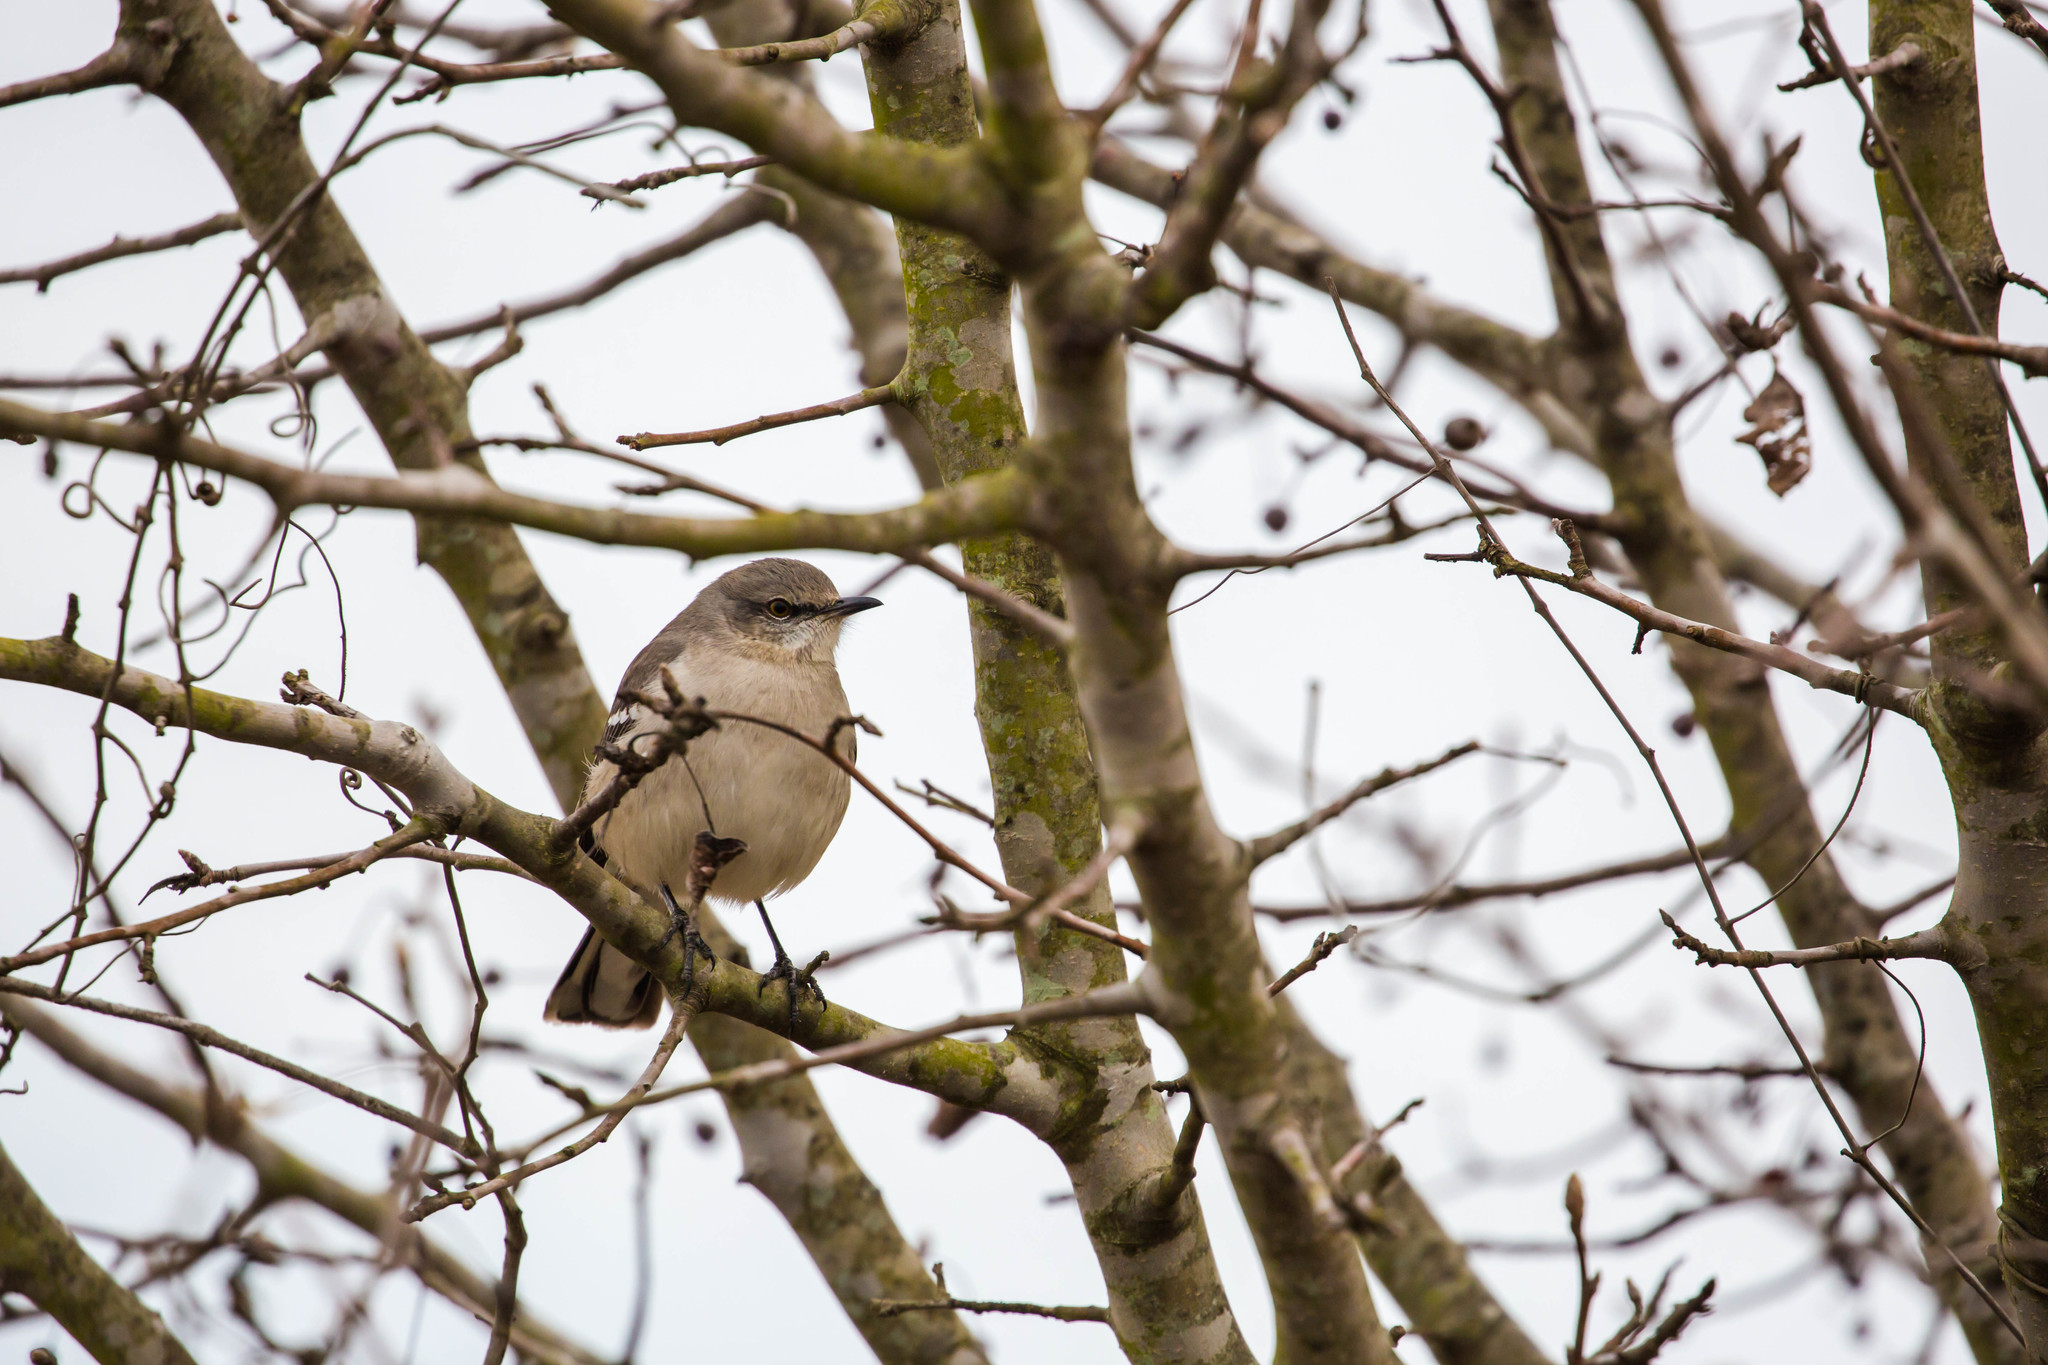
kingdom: Animalia
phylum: Chordata
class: Aves
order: Passeriformes
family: Mimidae
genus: Mimus
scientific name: Mimus polyglottos
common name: Northern mockingbird
